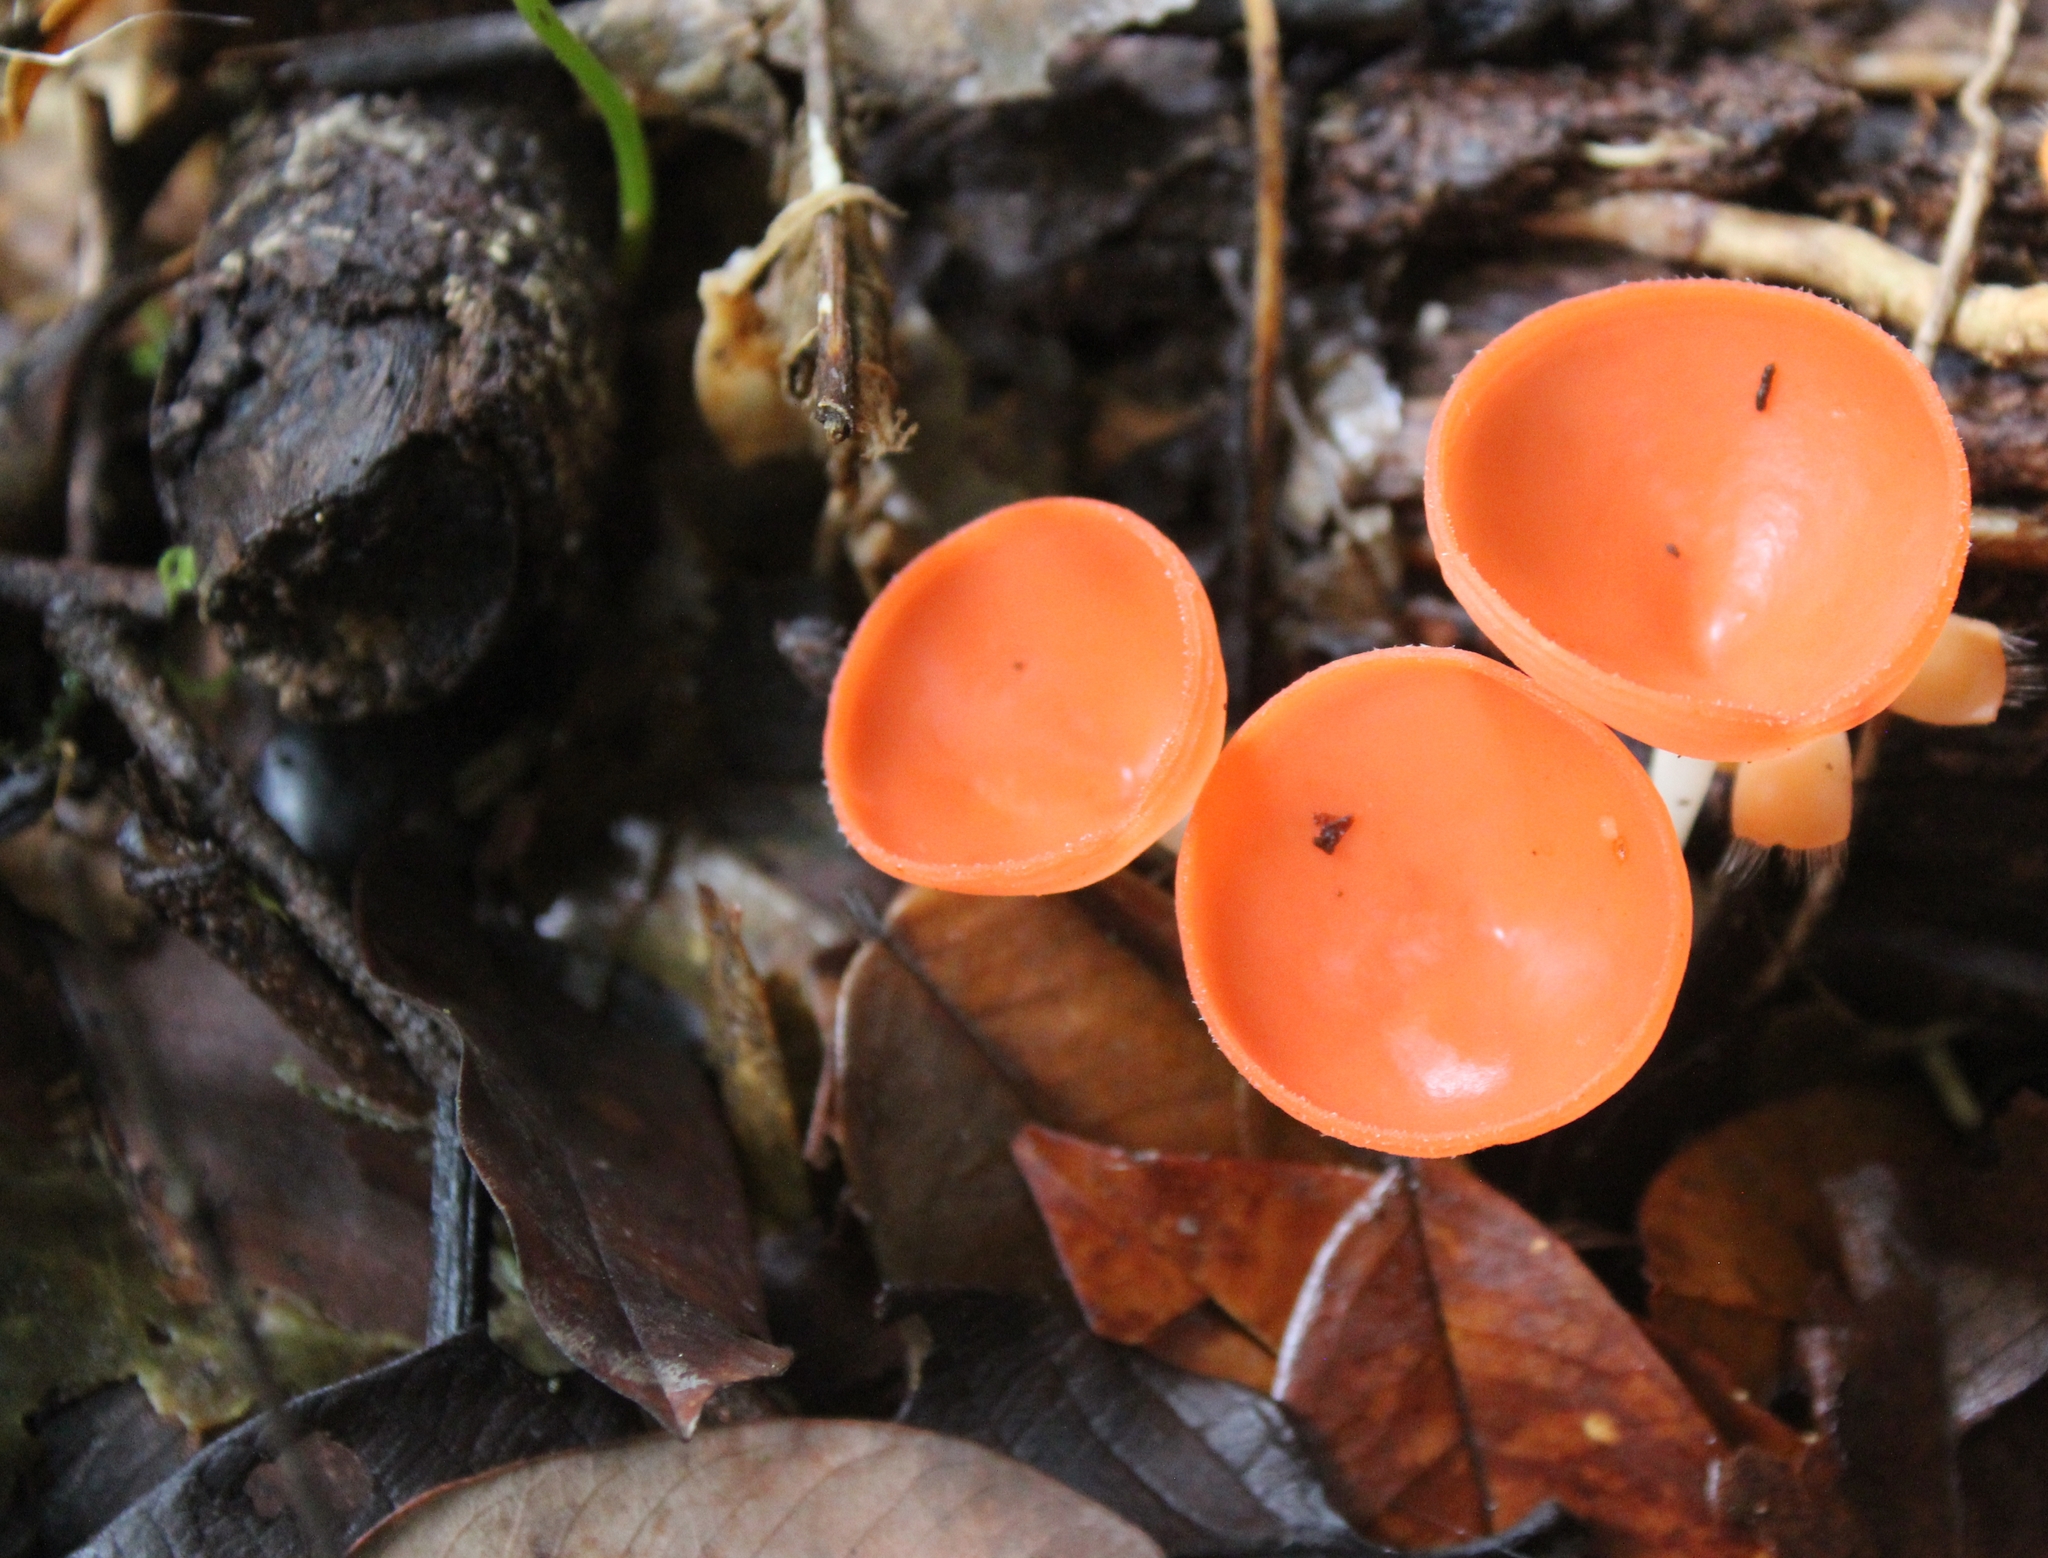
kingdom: Fungi
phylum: Ascomycota
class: Pezizomycetes
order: Pezizales
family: Sarcoscyphaceae
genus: Cookeina
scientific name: Cookeina speciosa
